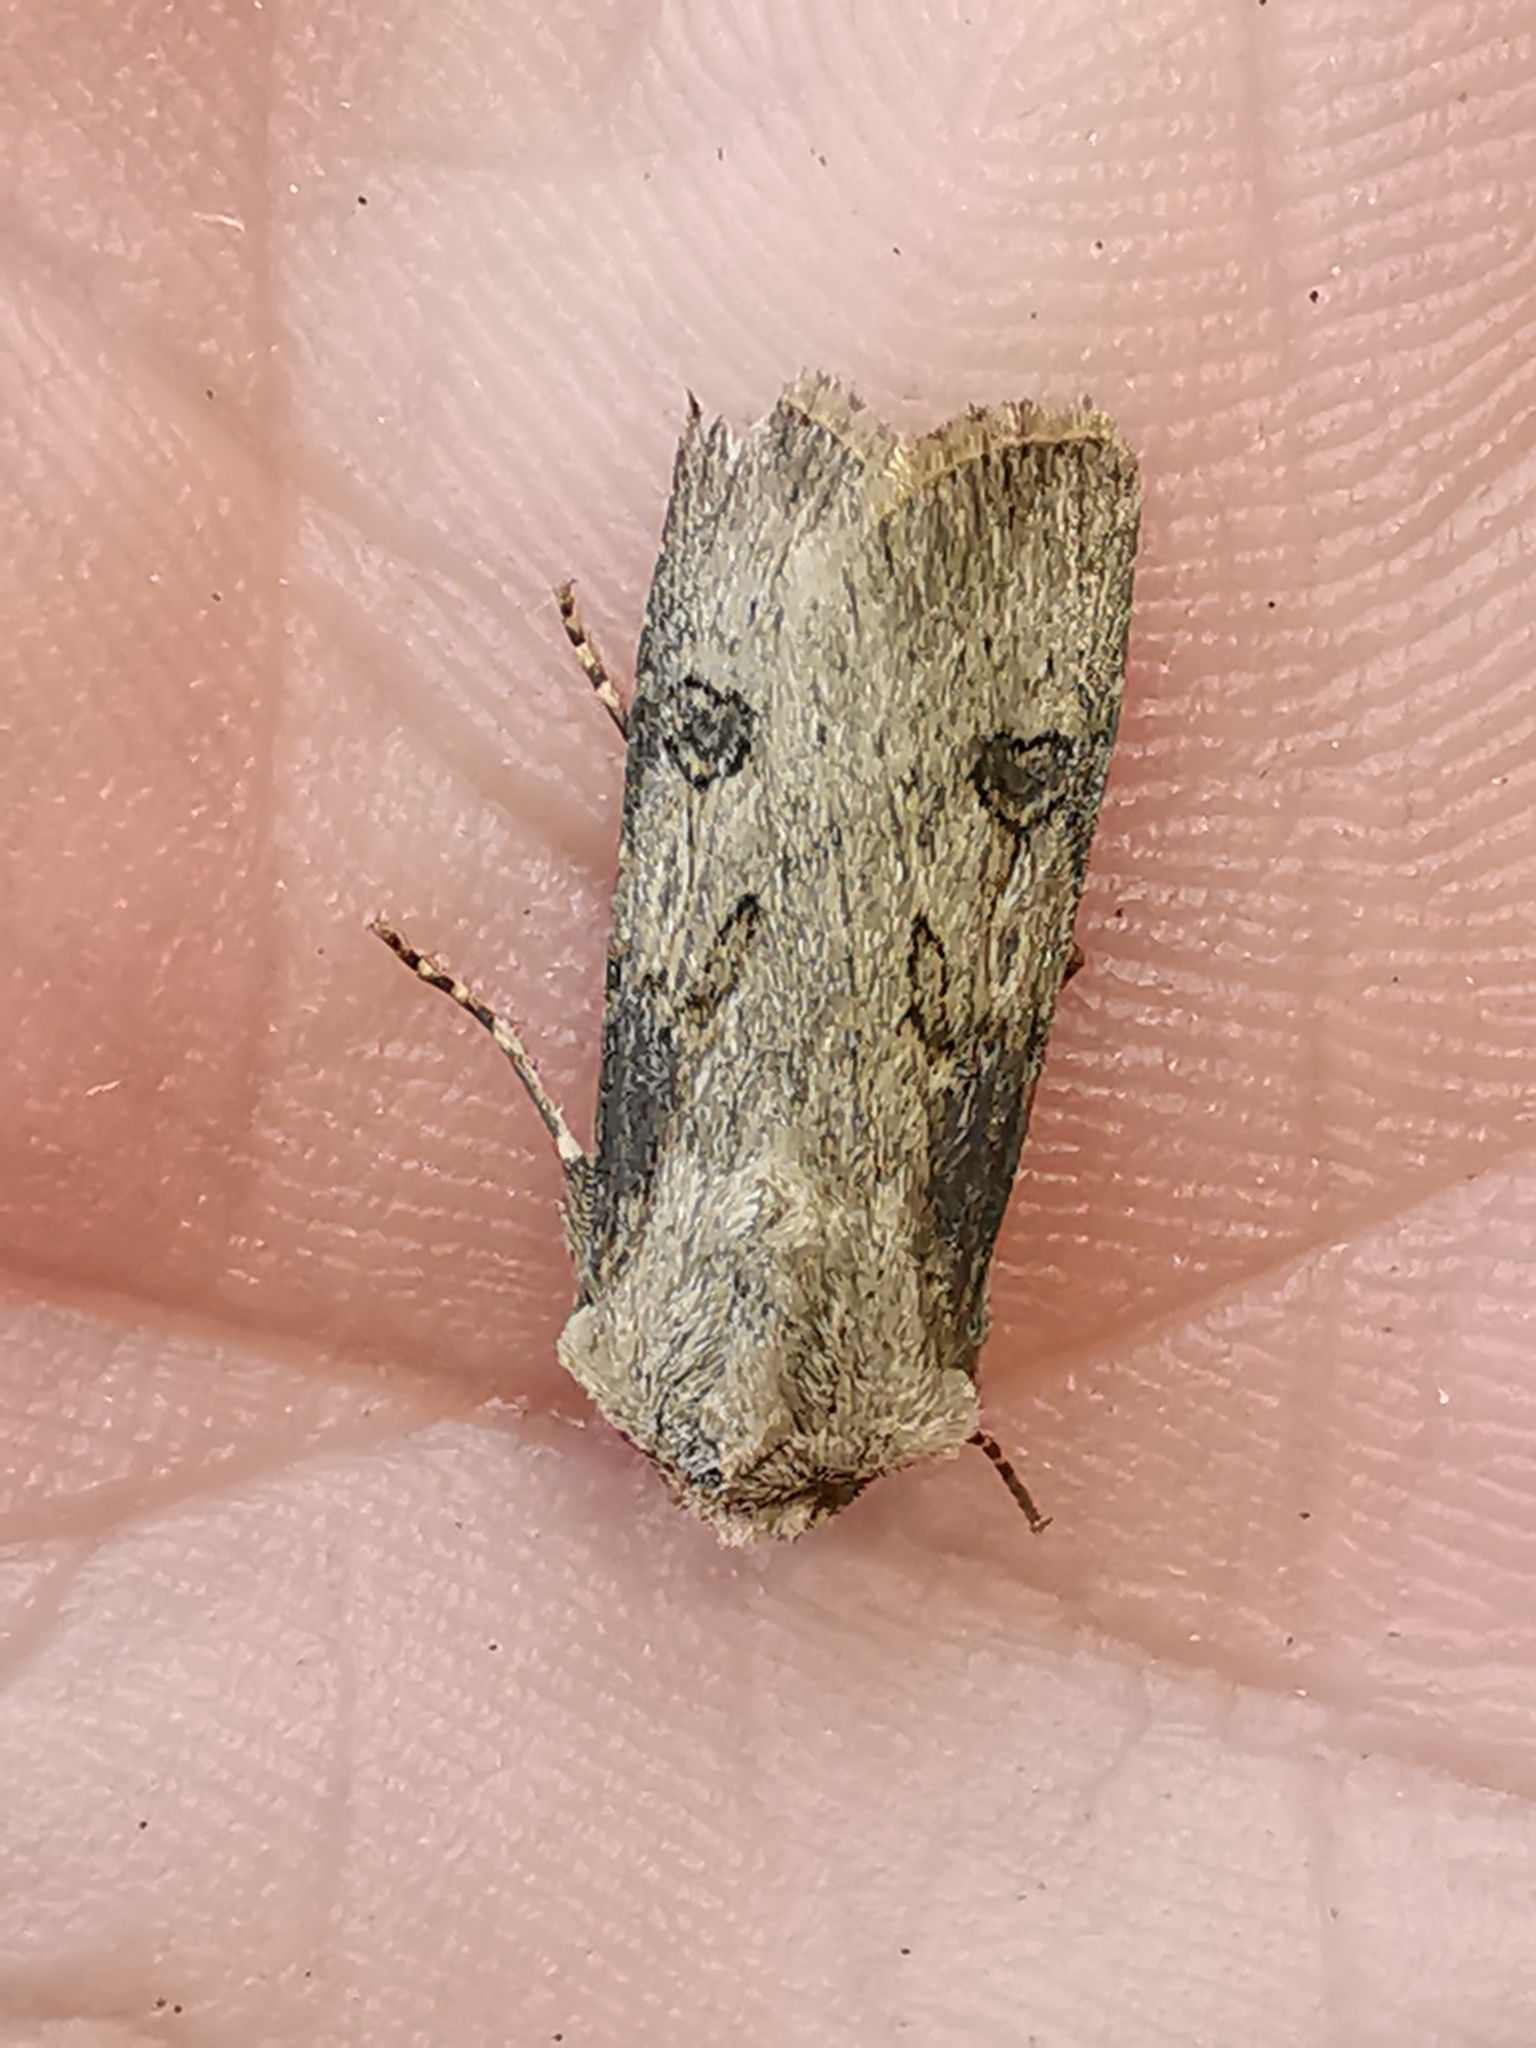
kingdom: Animalia
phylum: Arthropoda
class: Insecta
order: Lepidoptera
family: Noctuidae
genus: Agrotis
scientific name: Agrotis puta
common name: Shuttle-shaped dart
